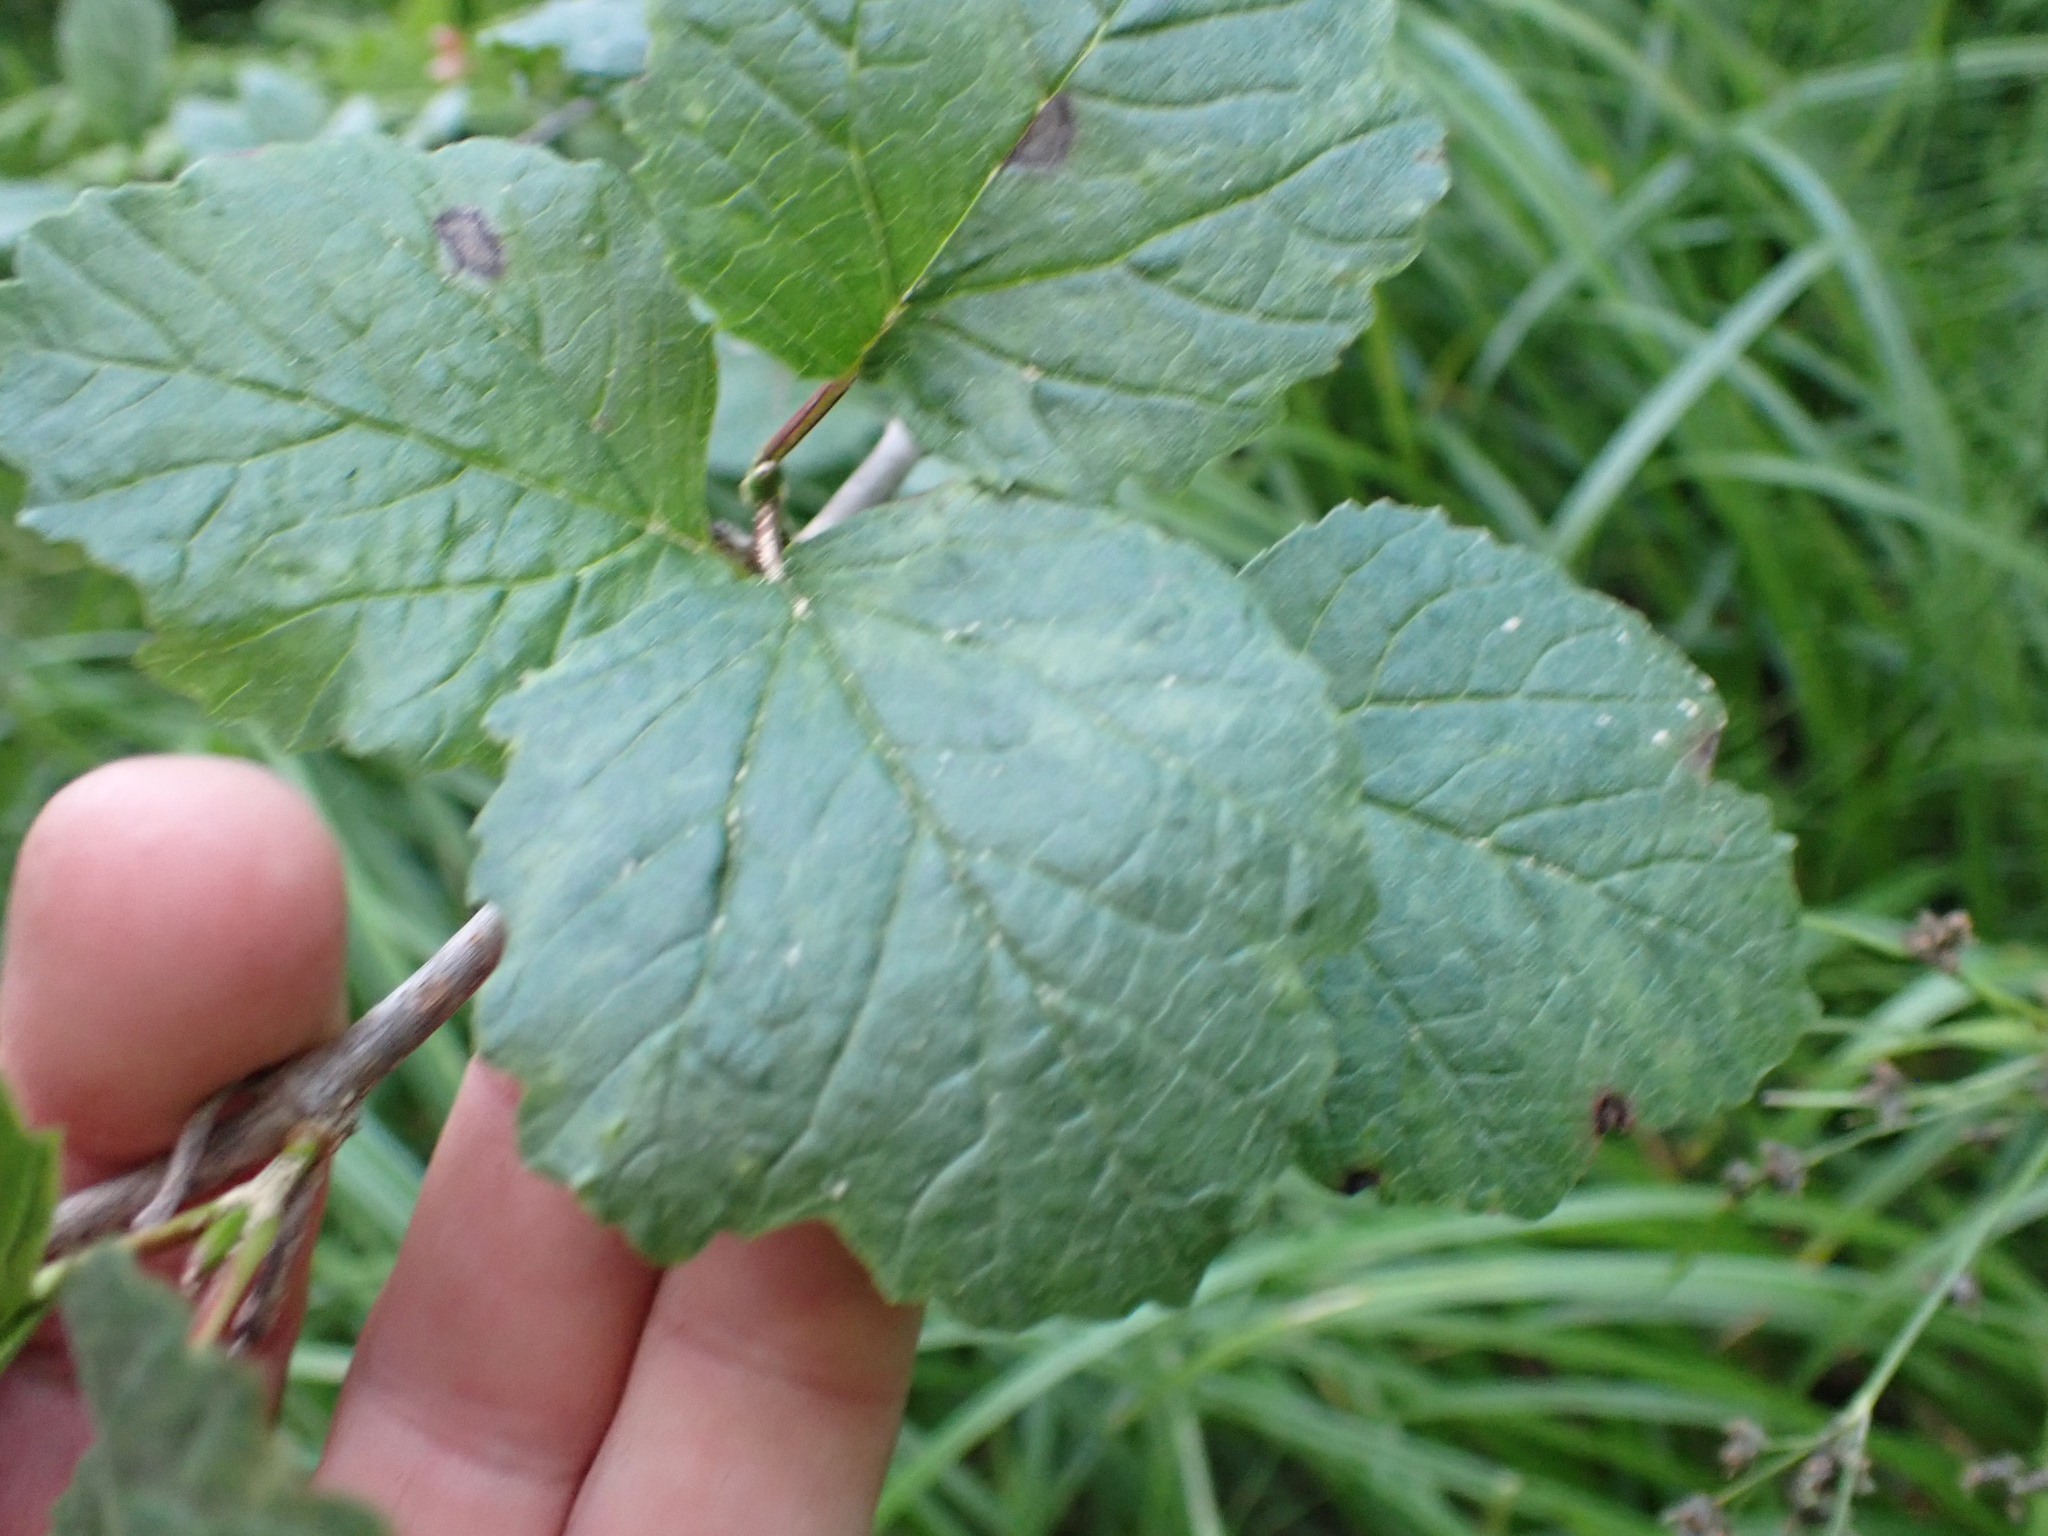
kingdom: Plantae
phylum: Tracheophyta
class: Magnoliopsida
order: Dipsacales
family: Viburnaceae
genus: Viburnum
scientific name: Viburnum edule
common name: Mooseberry
